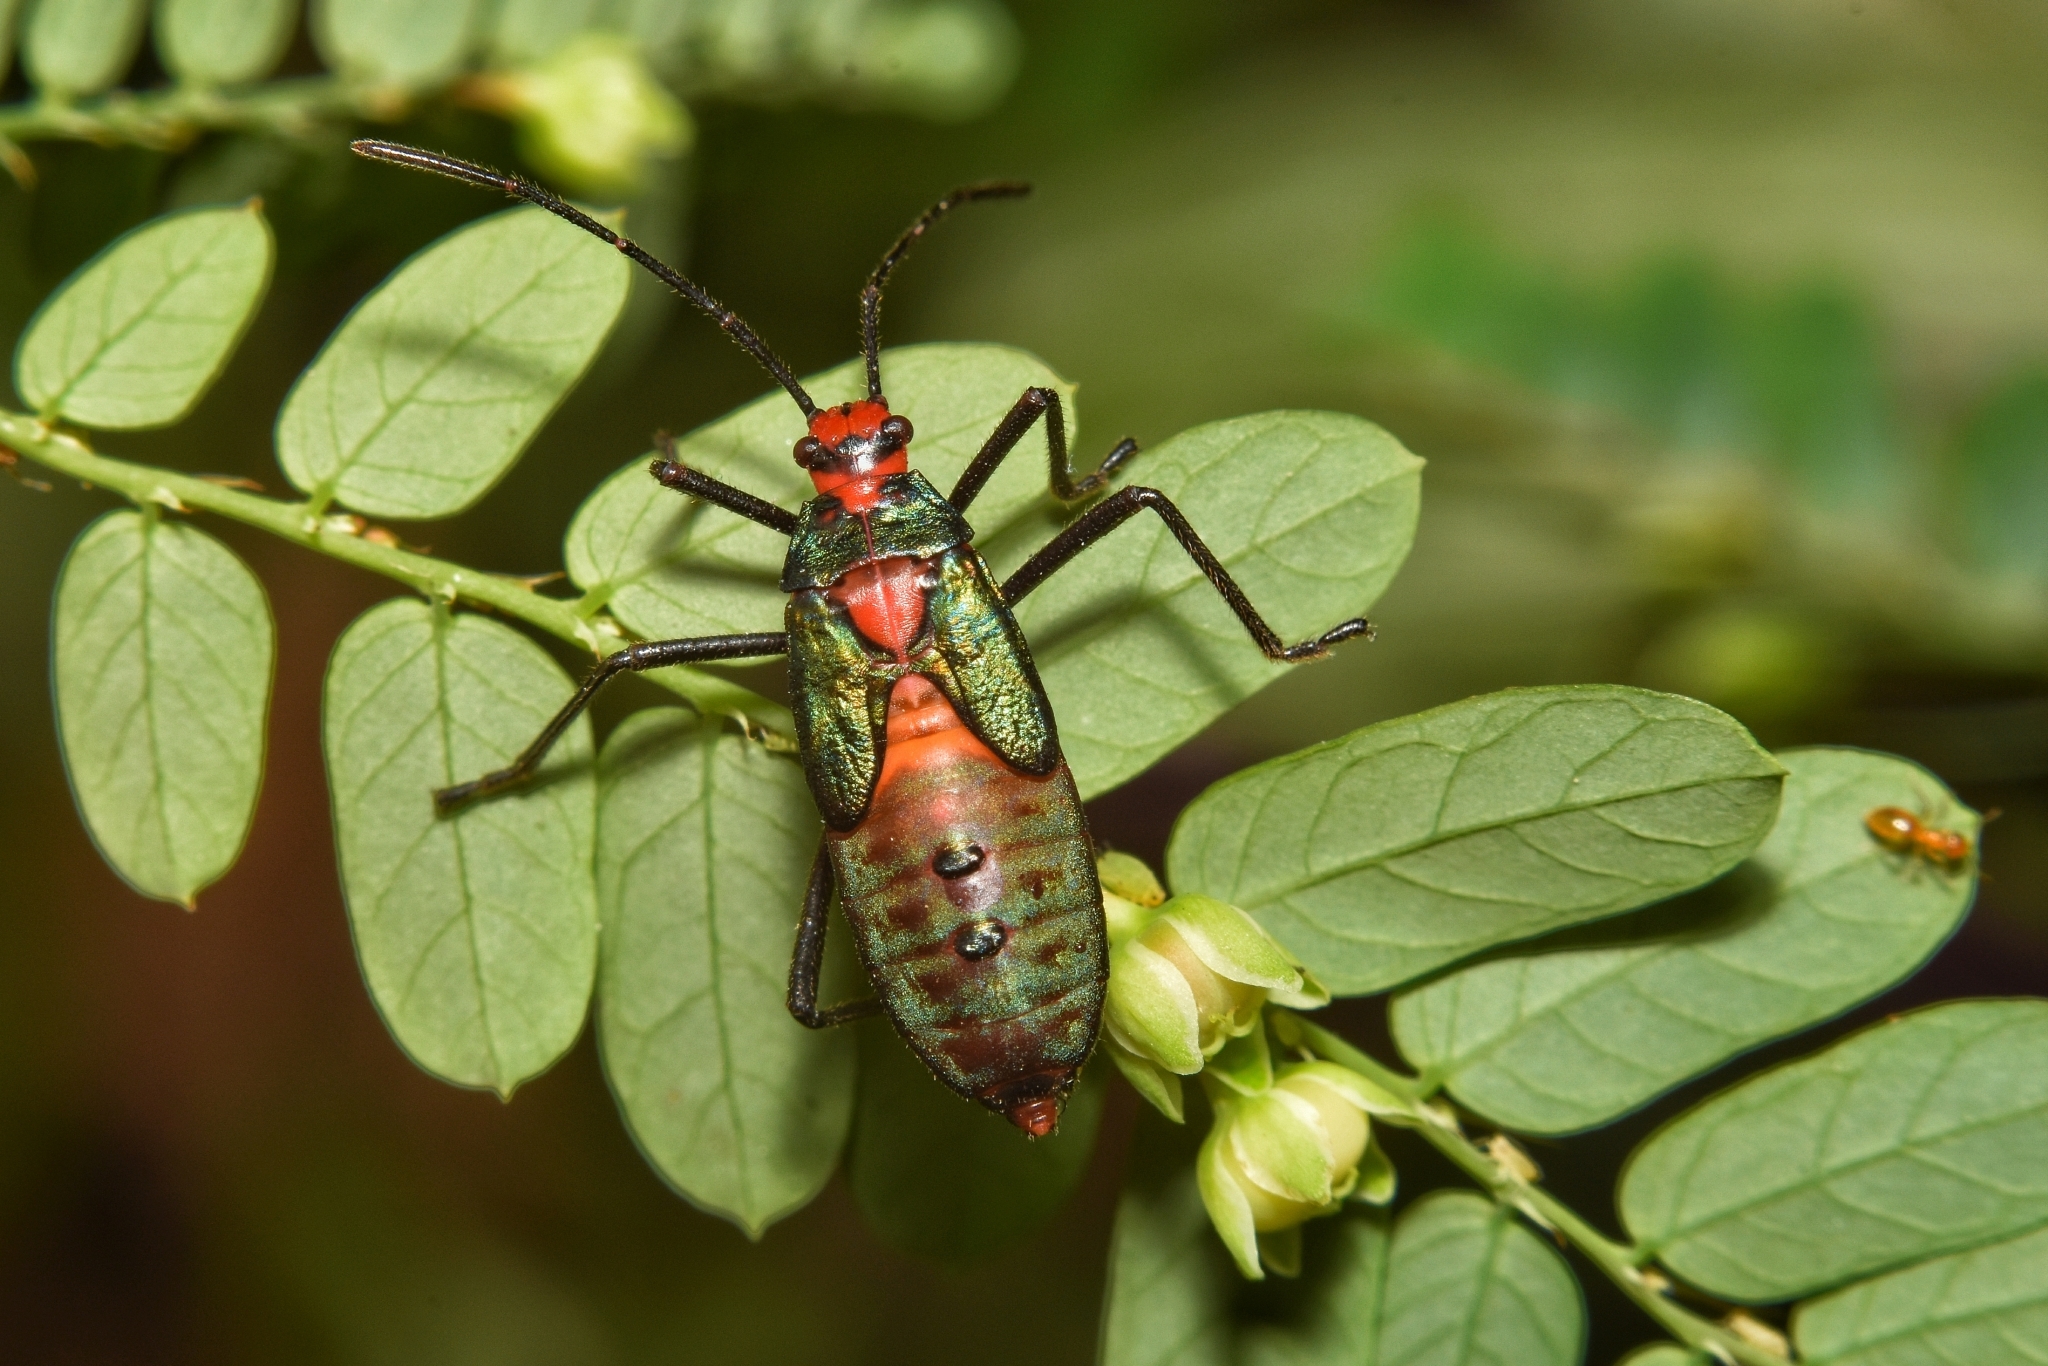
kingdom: Animalia
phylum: Arthropoda
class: Insecta
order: Hemiptera
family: Coreidae
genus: Sphictyrtus
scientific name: Sphictyrtus sumtuosus
